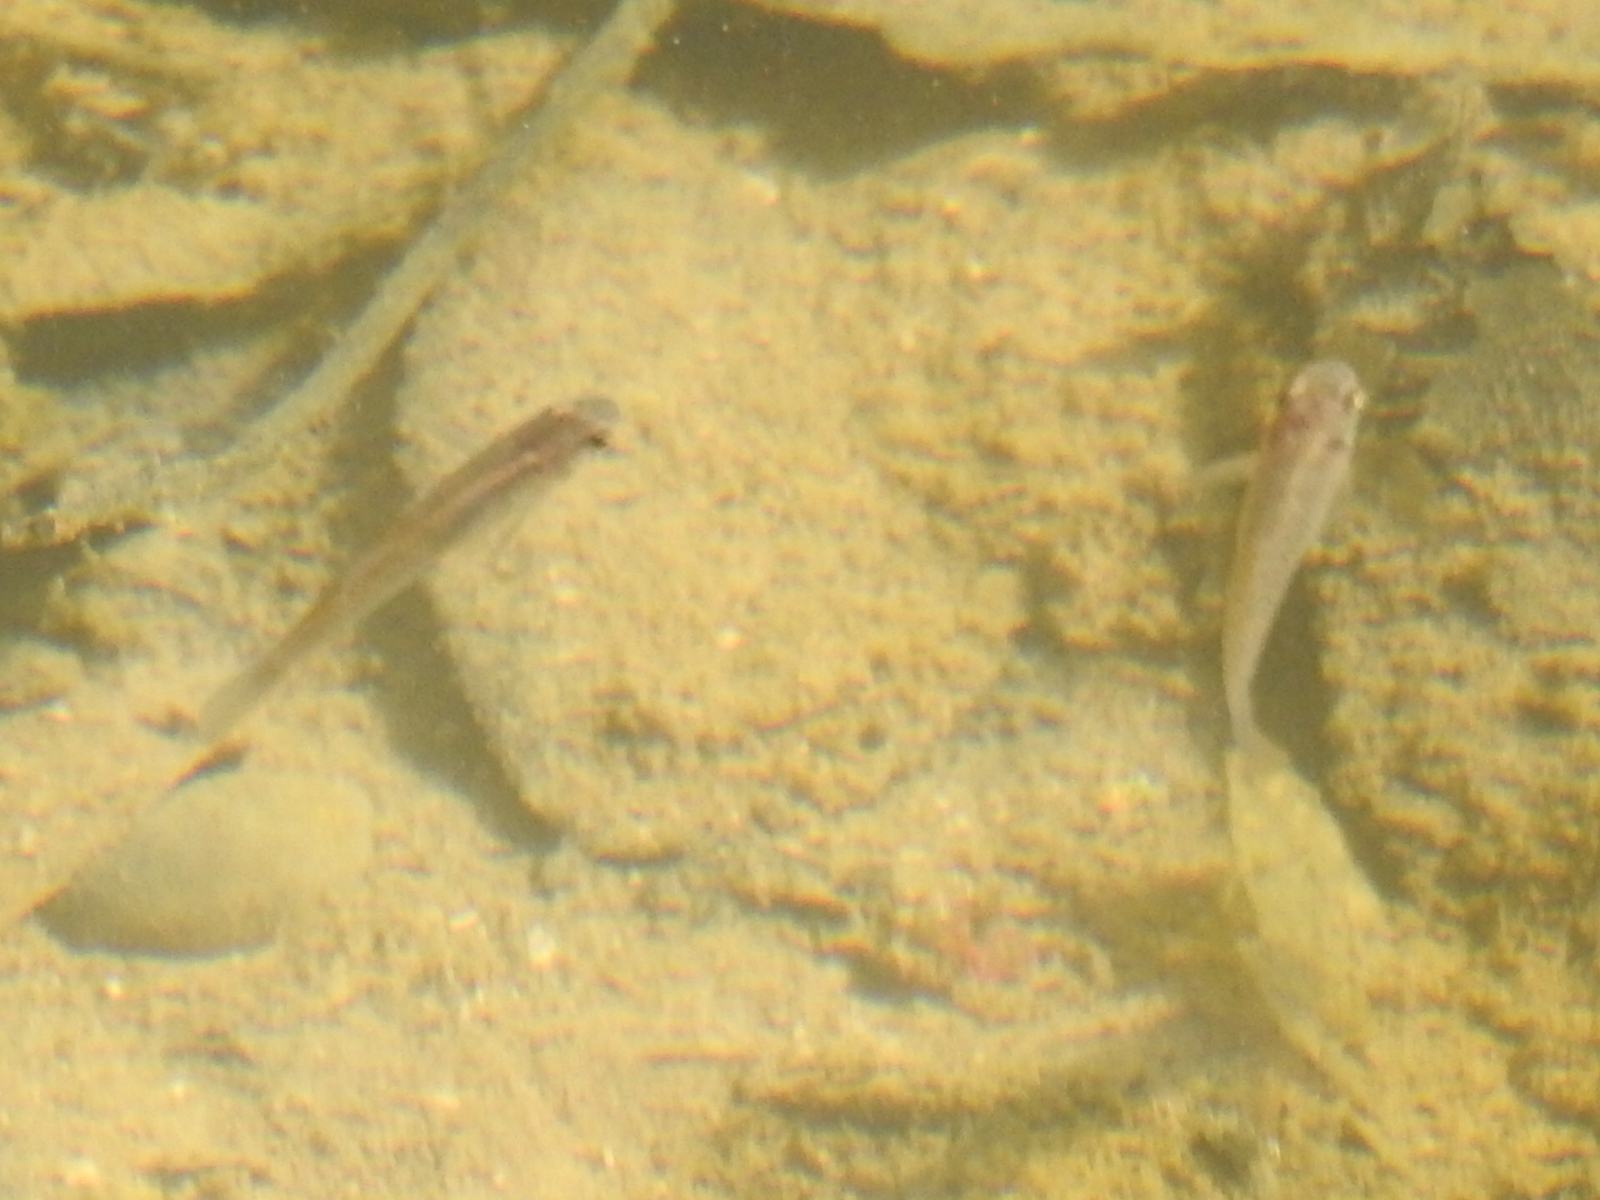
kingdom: Animalia
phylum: Chordata
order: Cyprinodontiformes
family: Poeciliidae
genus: Gambusia
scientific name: Gambusia affinis
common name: Mosquitofish
